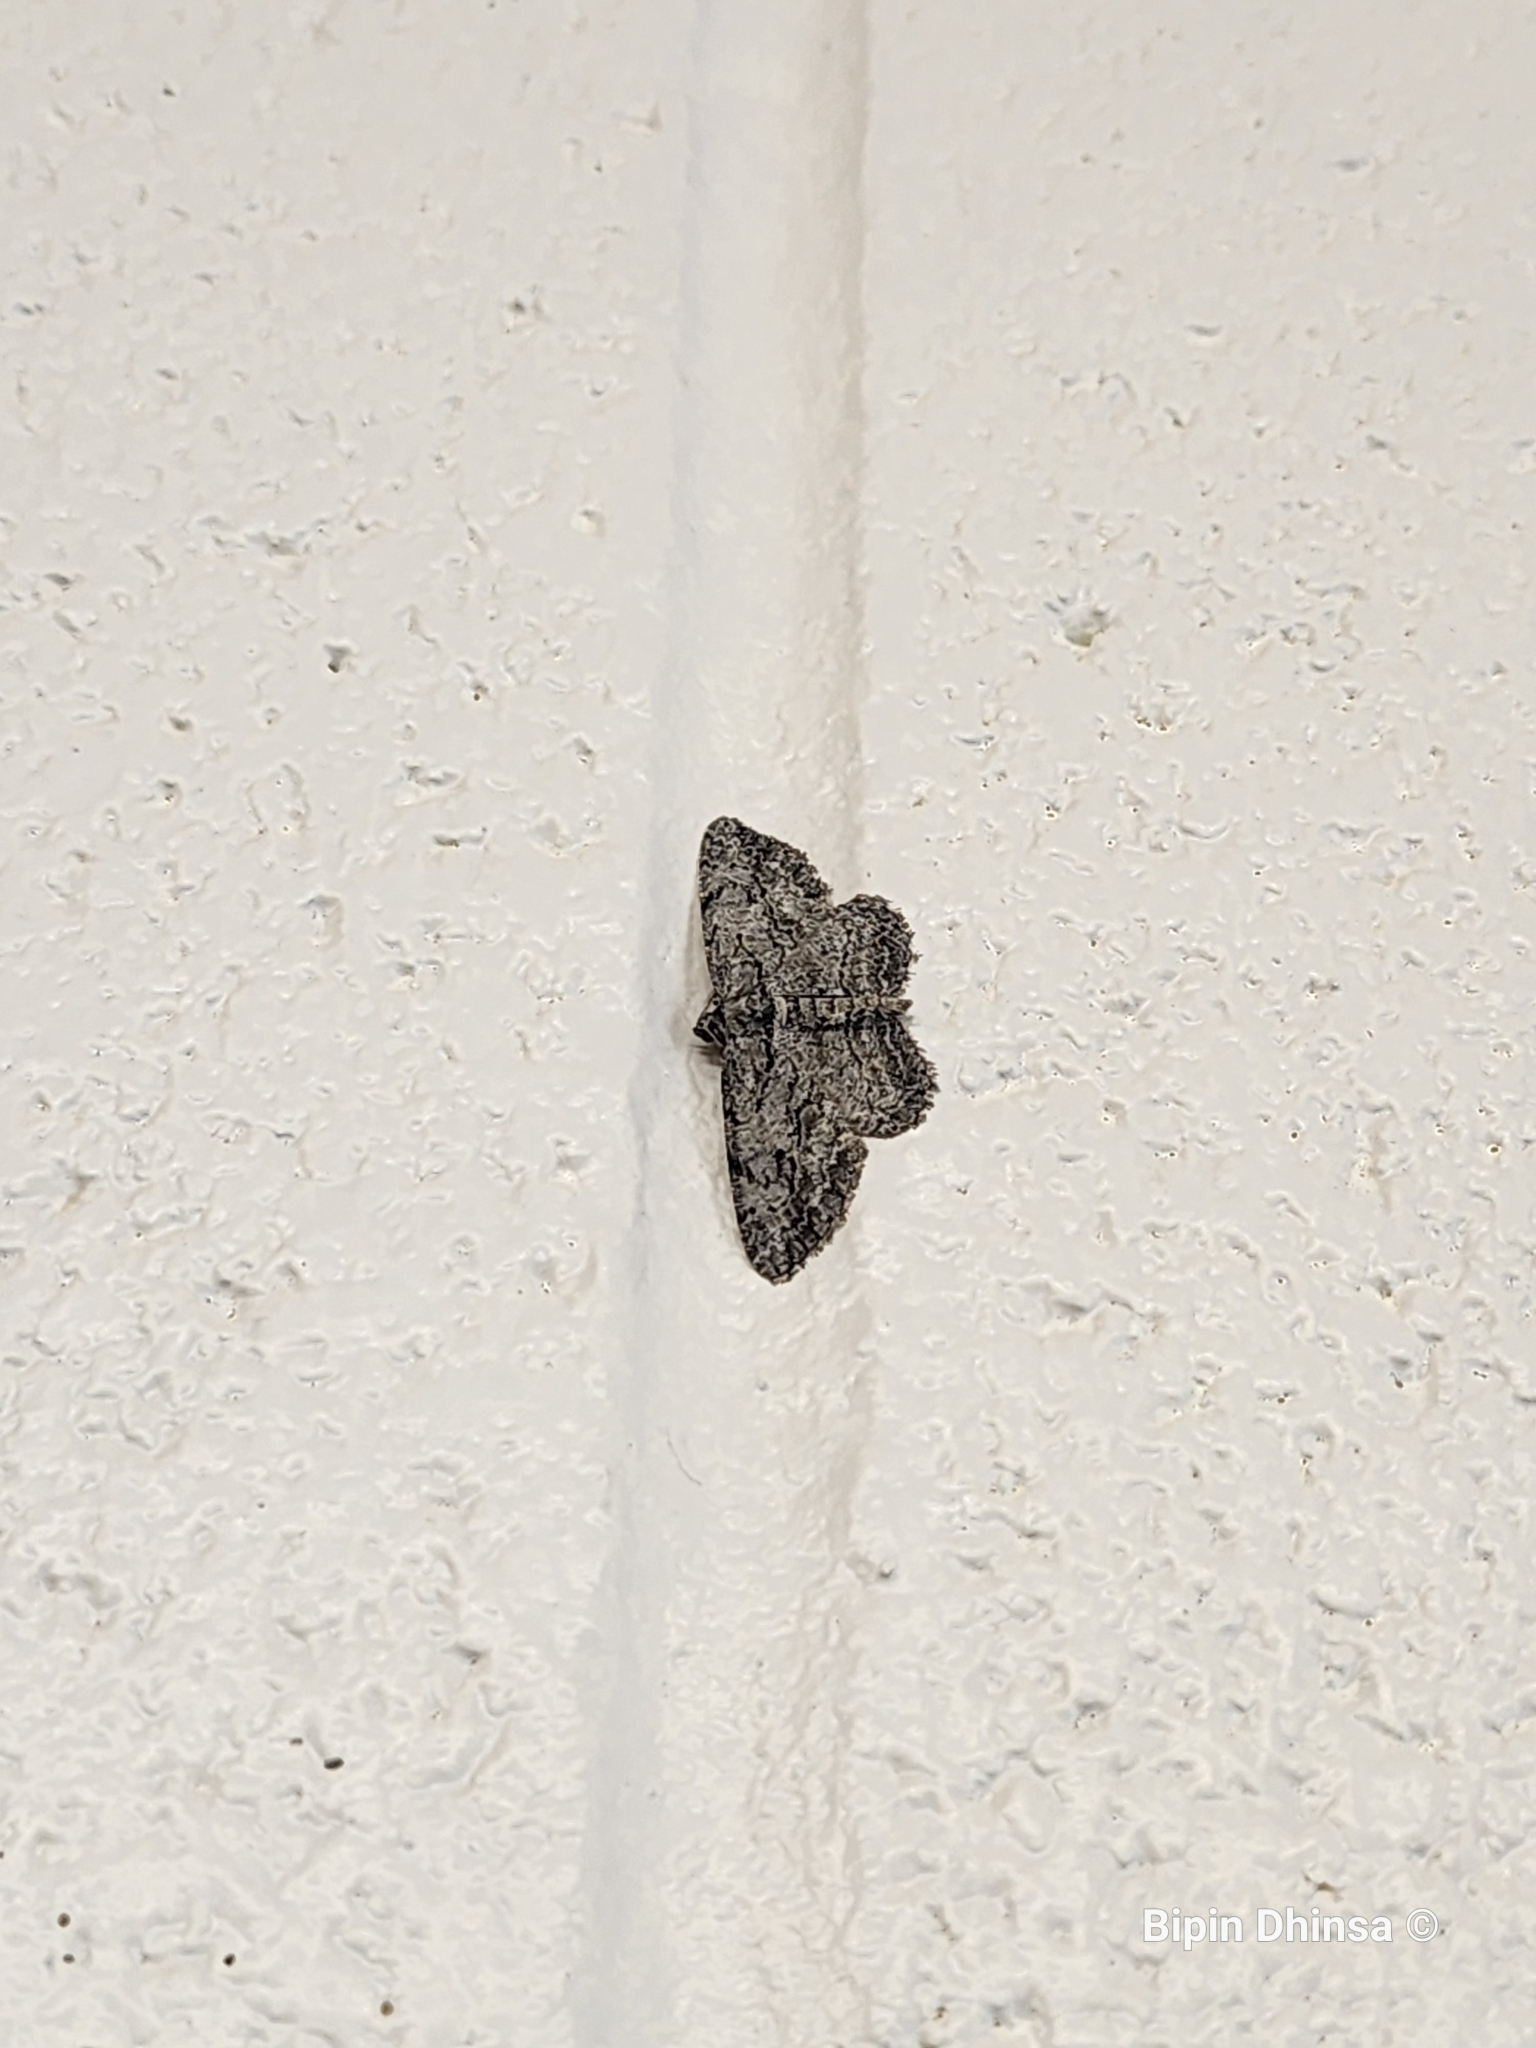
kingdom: Animalia
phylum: Arthropoda
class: Insecta
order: Lepidoptera
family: Geometridae
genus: Anavitrinella
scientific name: Anavitrinella pampinaria
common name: Common gray
